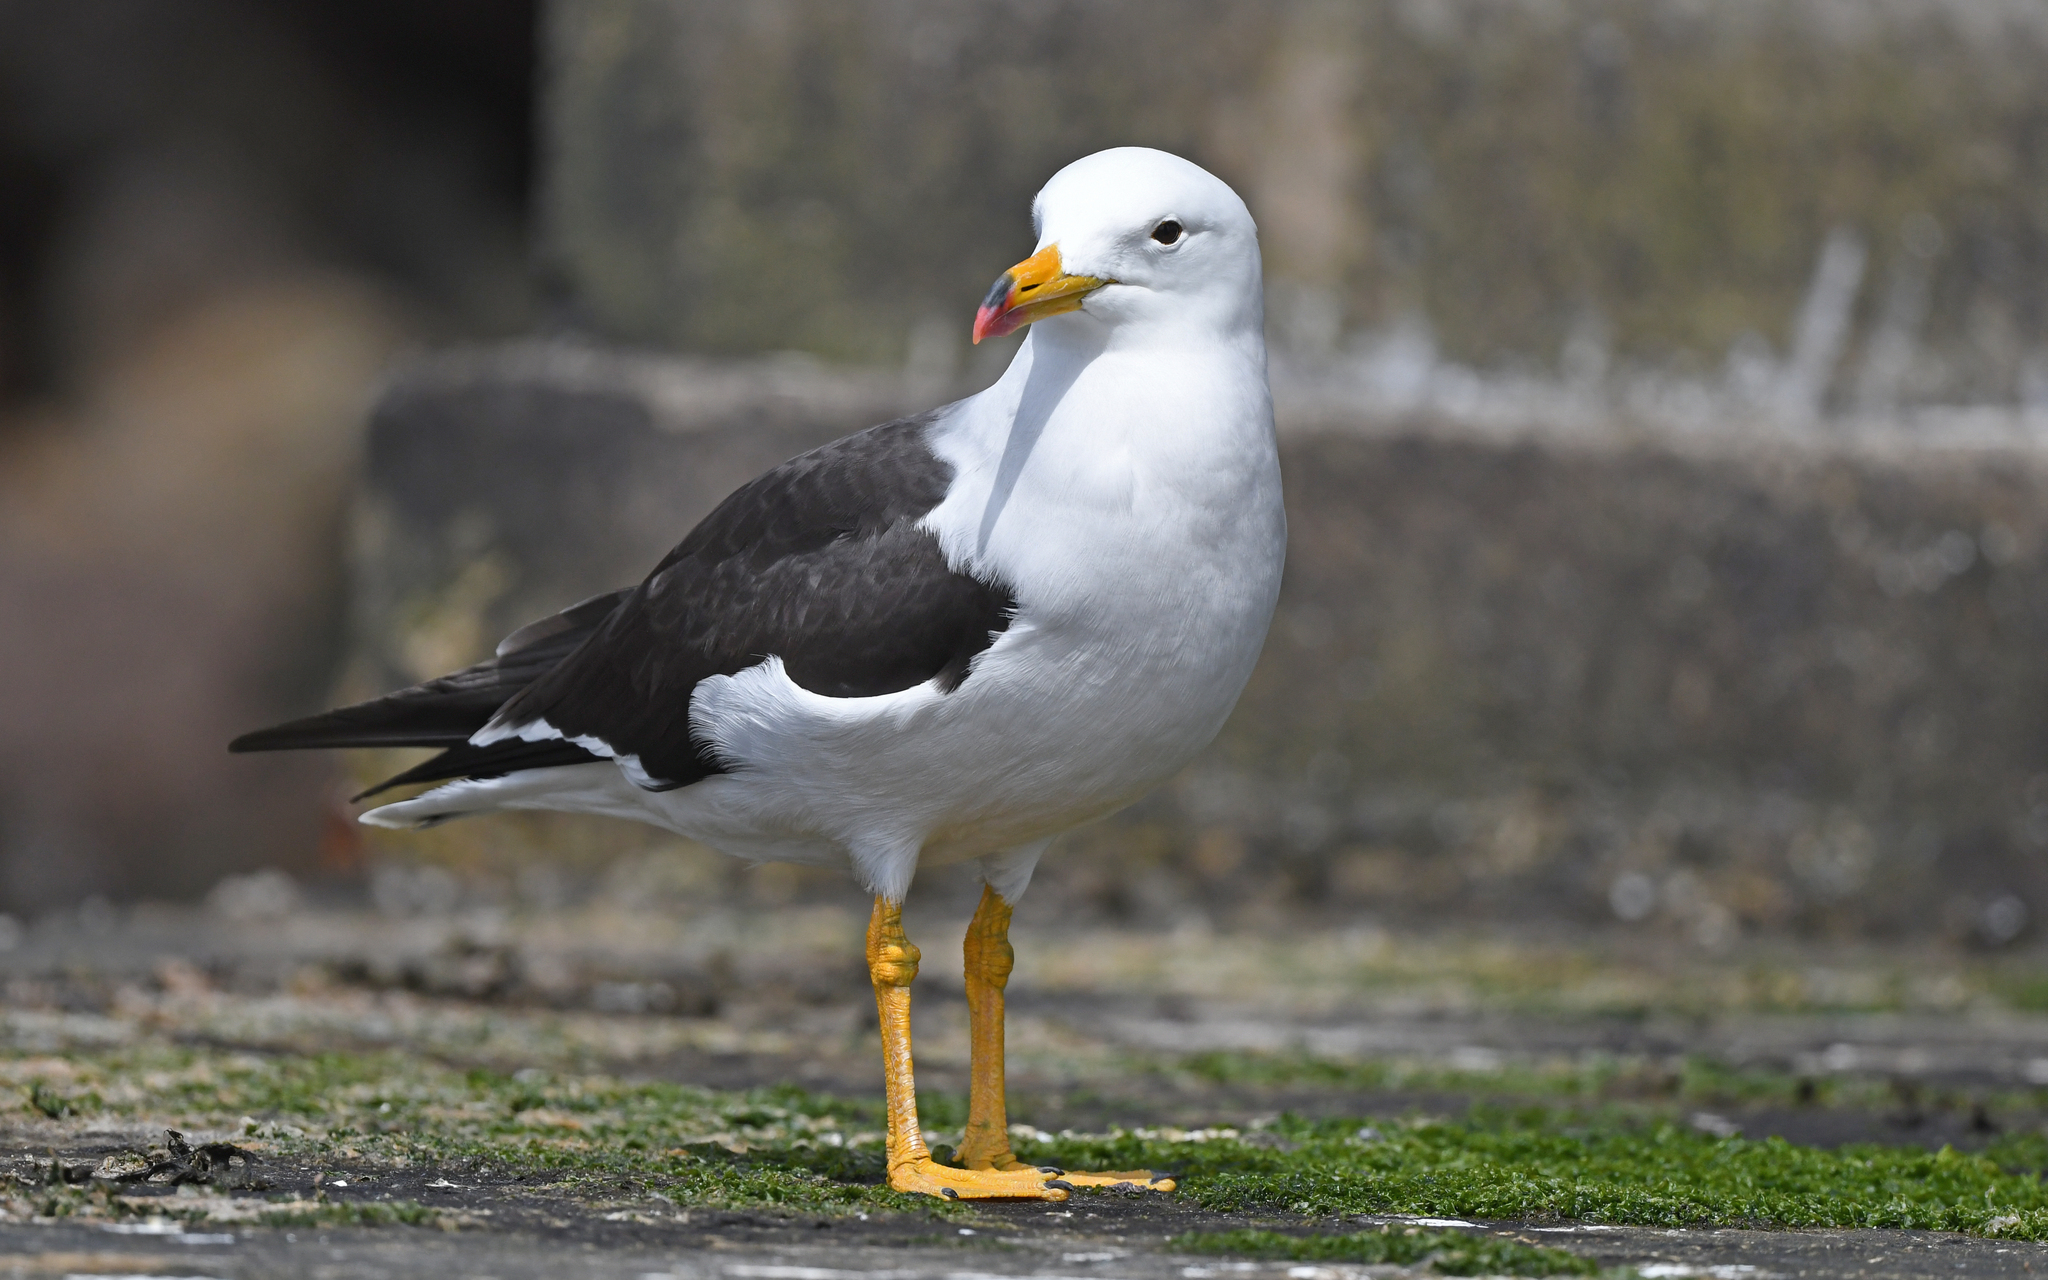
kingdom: Animalia
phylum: Chordata
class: Aves
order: Charadriiformes
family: Laridae
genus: Larus
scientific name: Larus belcheri
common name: Belcher's gull
